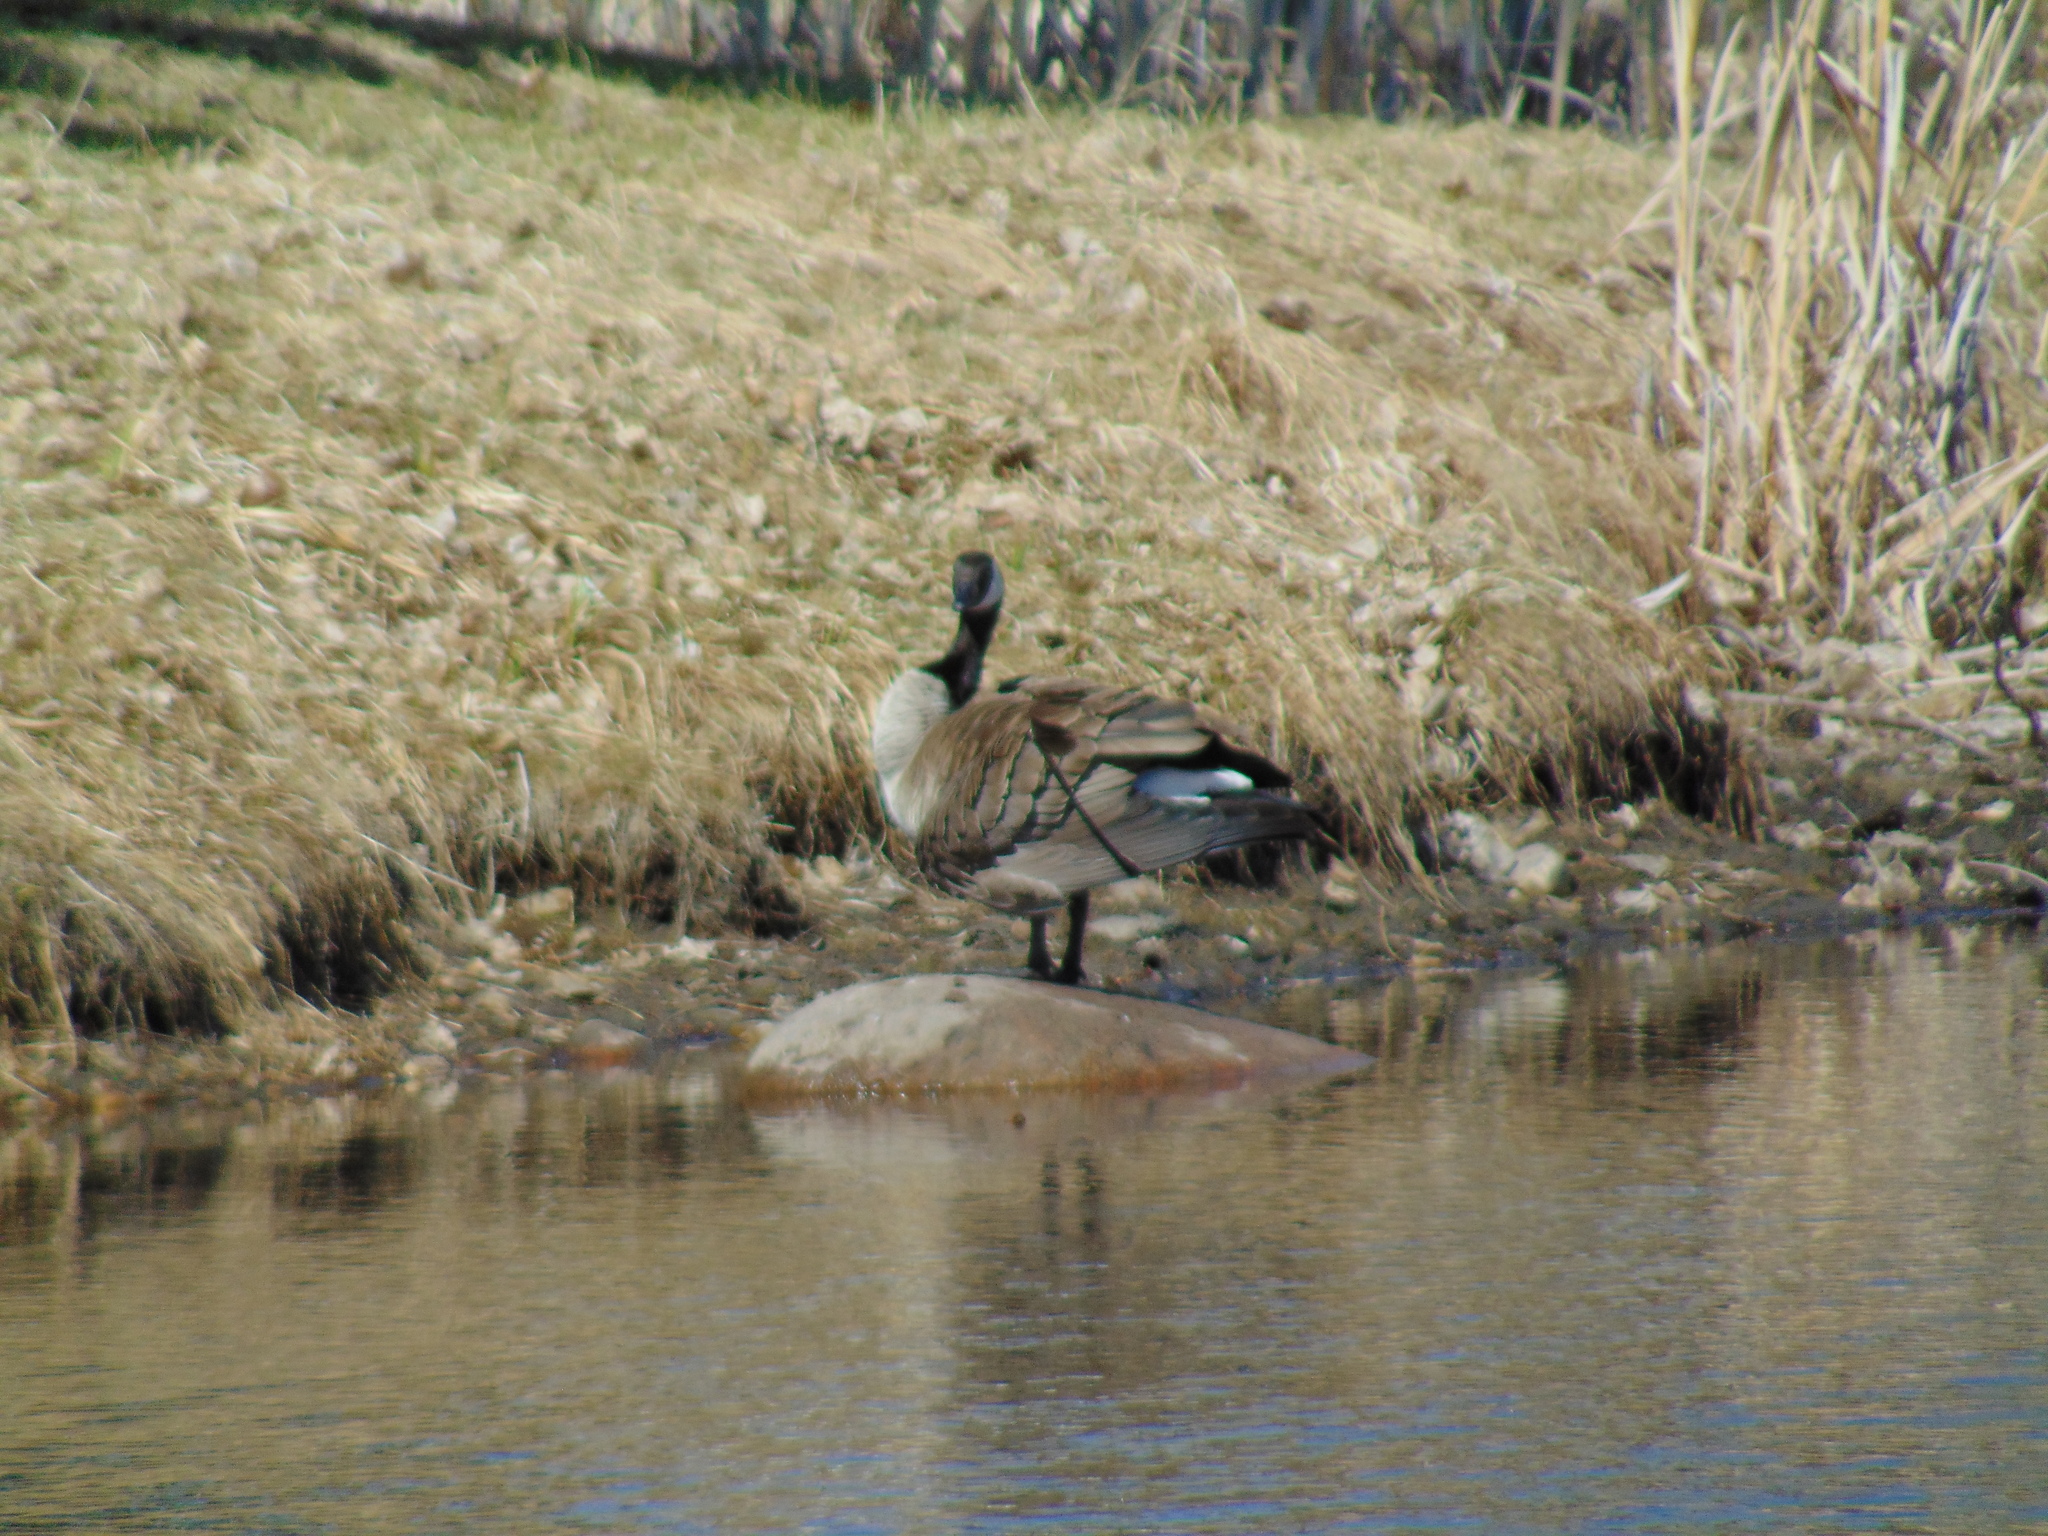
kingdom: Animalia
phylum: Chordata
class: Aves
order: Anseriformes
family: Anatidae
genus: Branta
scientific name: Branta canadensis
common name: Canada goose
